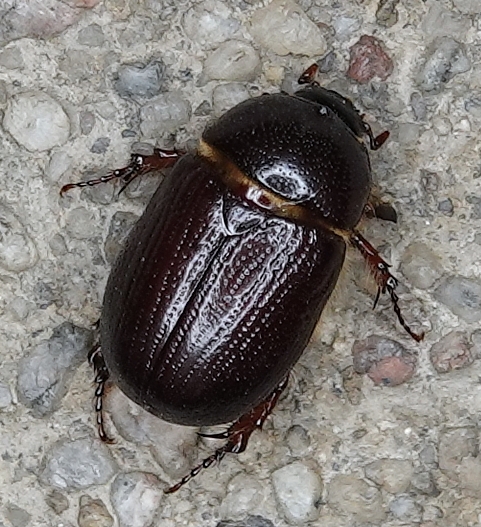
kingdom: Animalia
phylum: Arthropoda
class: Insecta
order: Coleoptera
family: Scarabaeidae
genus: Ligyrus
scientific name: Ligyrus gibbosus
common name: Carrot beetle
